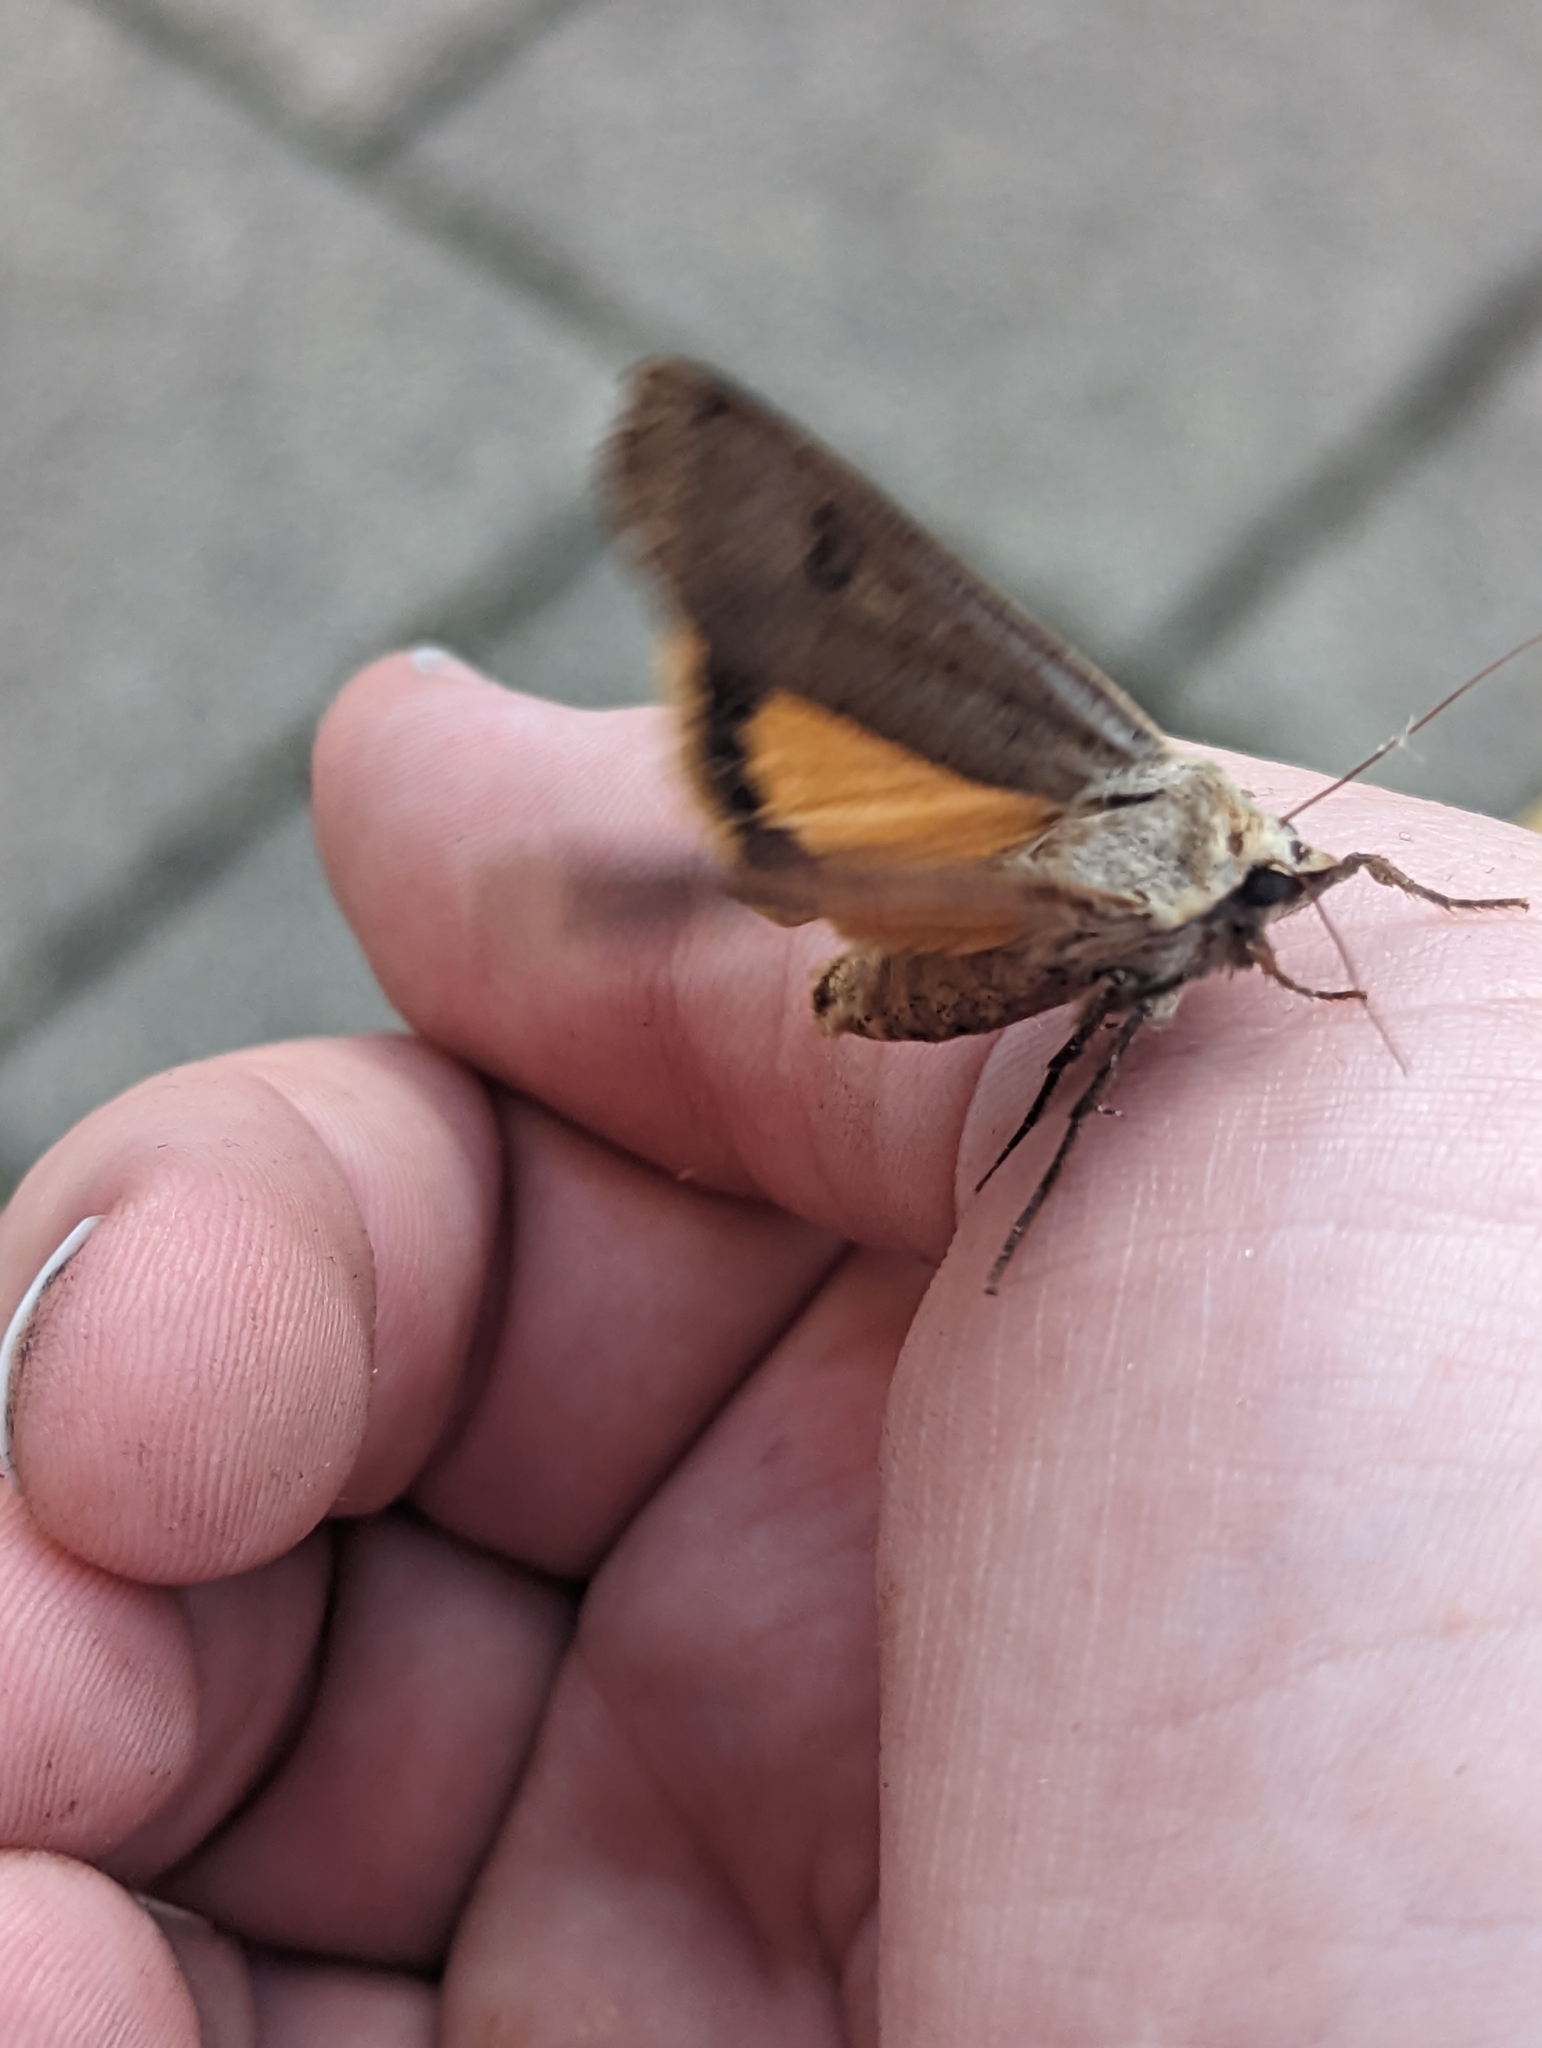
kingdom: Animalia
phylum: Arthropoda
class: Insecta
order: Lepidoptera
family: Noctuidae
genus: Noctua
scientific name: Noctua pronuba
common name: Large yellow underwing
